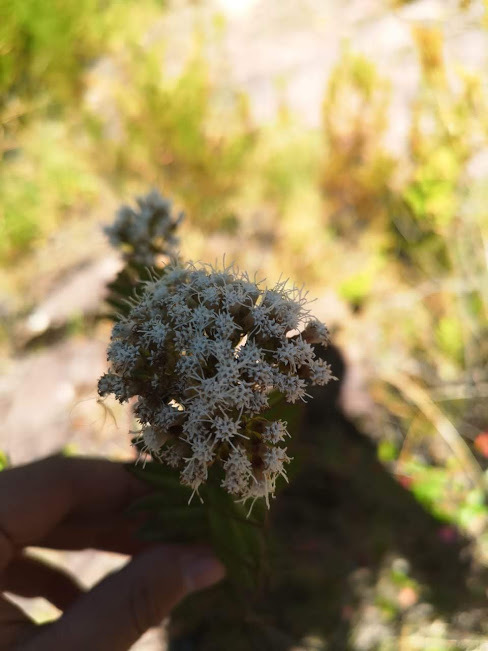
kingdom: Plantae
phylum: Tracheophyta
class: Magnoliopsida
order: Asterales
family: Asteraceae
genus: Ageratina
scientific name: Ageratina vacciniifolia
